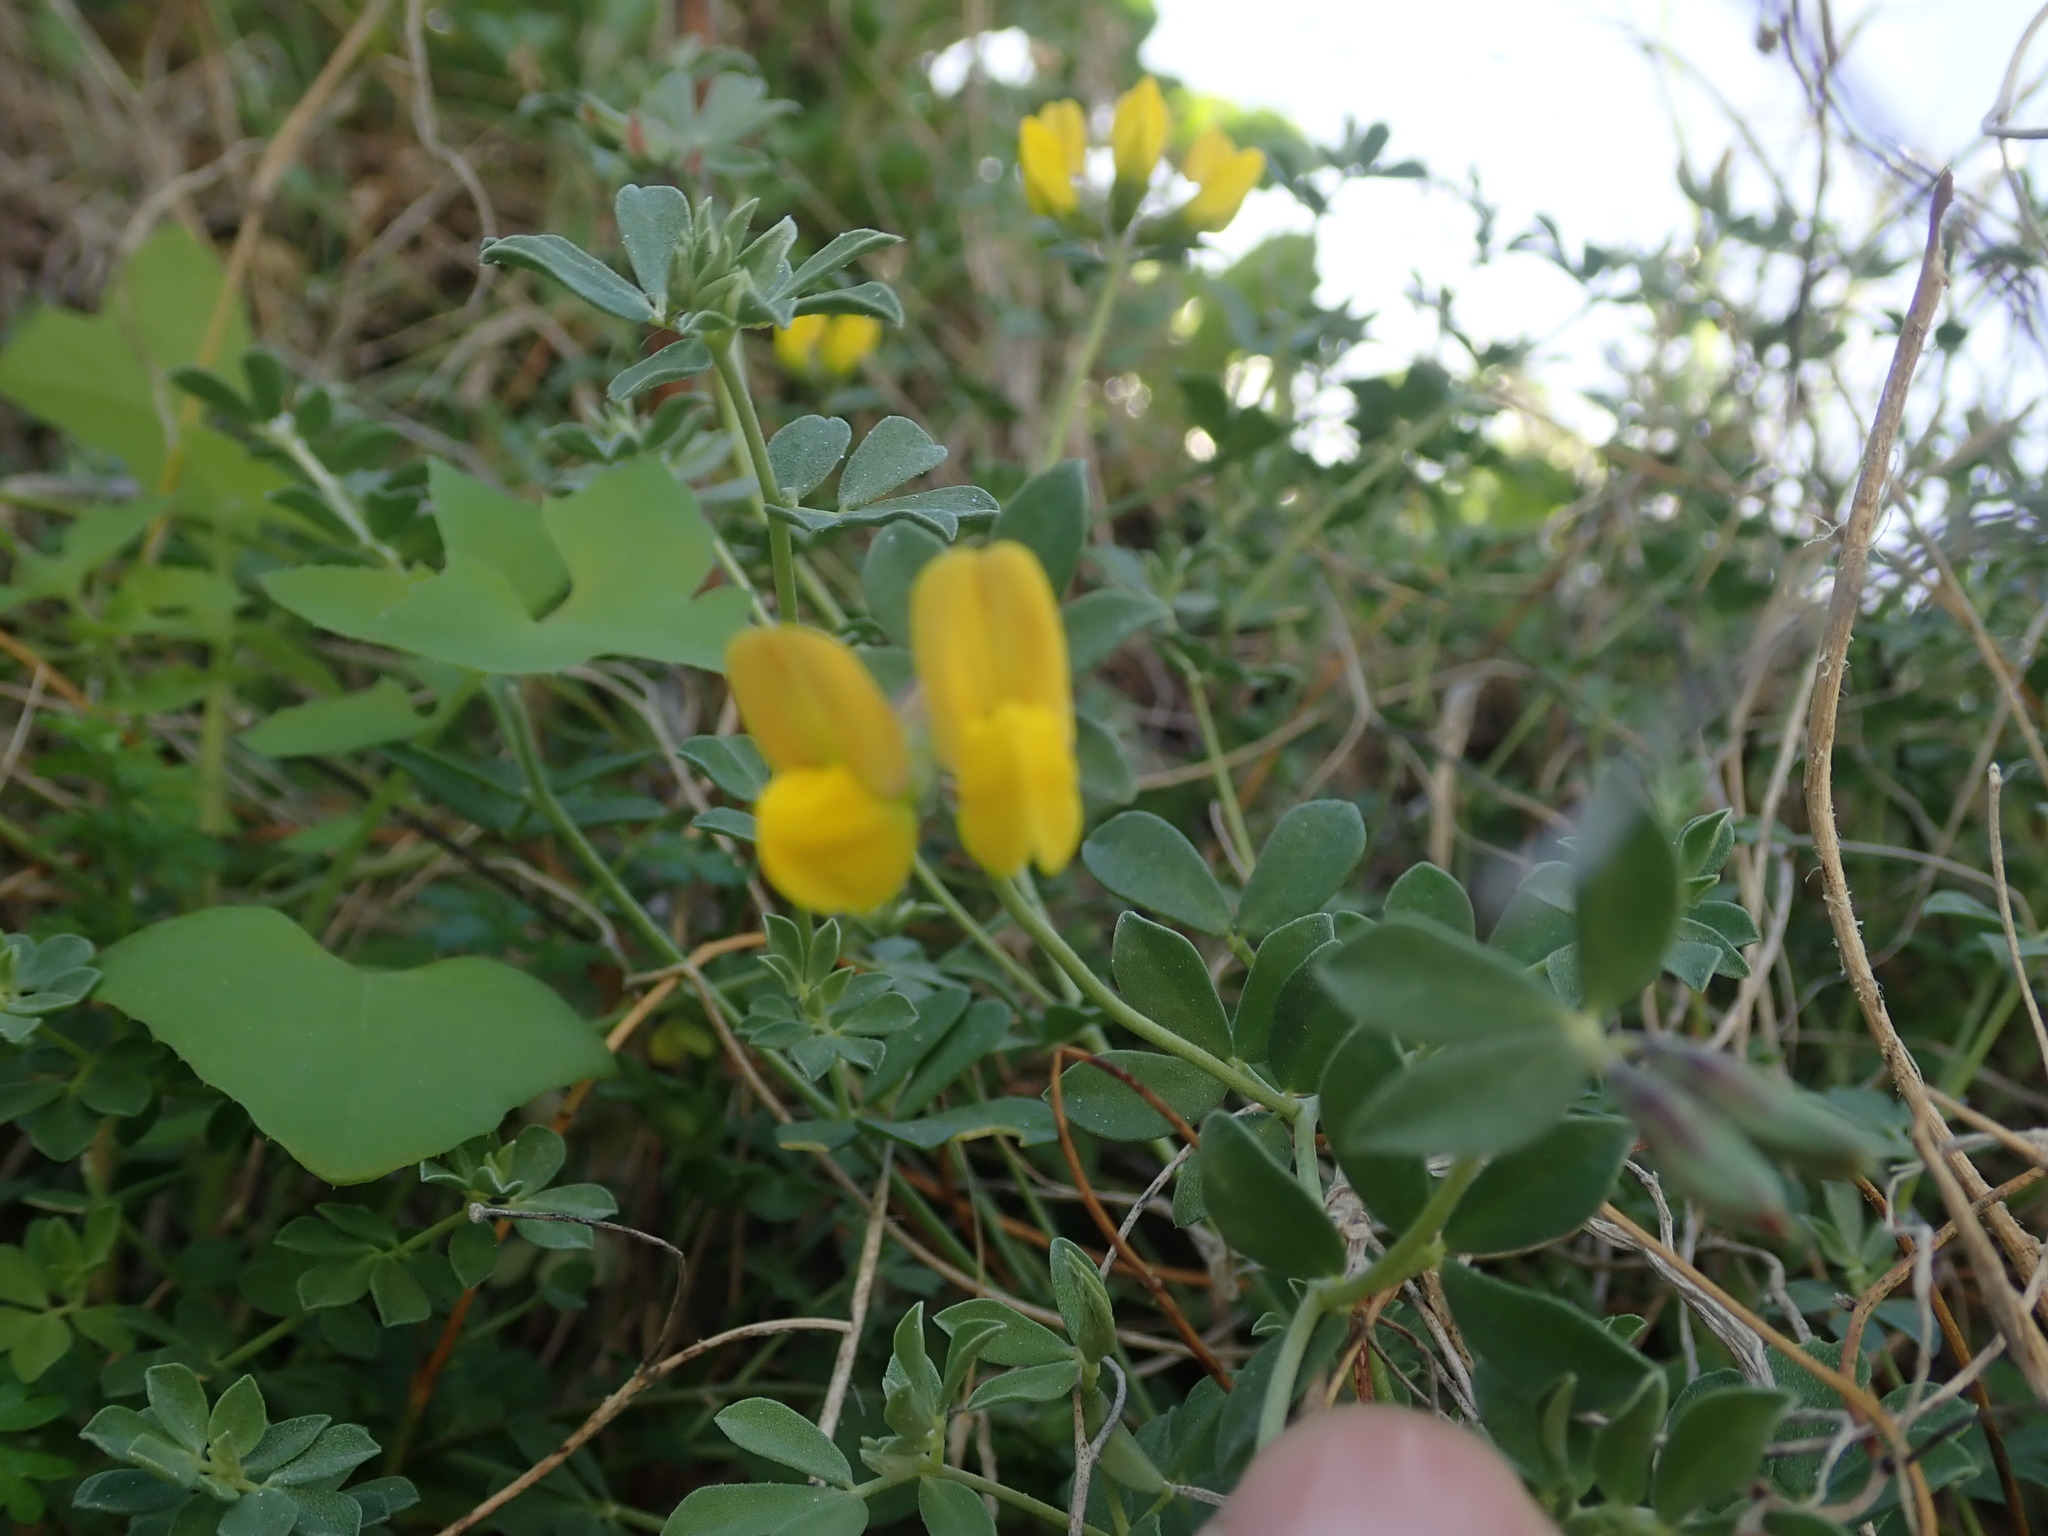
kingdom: Plantae
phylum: Tracheophyta
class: Magnoliopsida
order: Fabales
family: Fabaceae
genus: Lotus
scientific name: Lotus cytisoides
